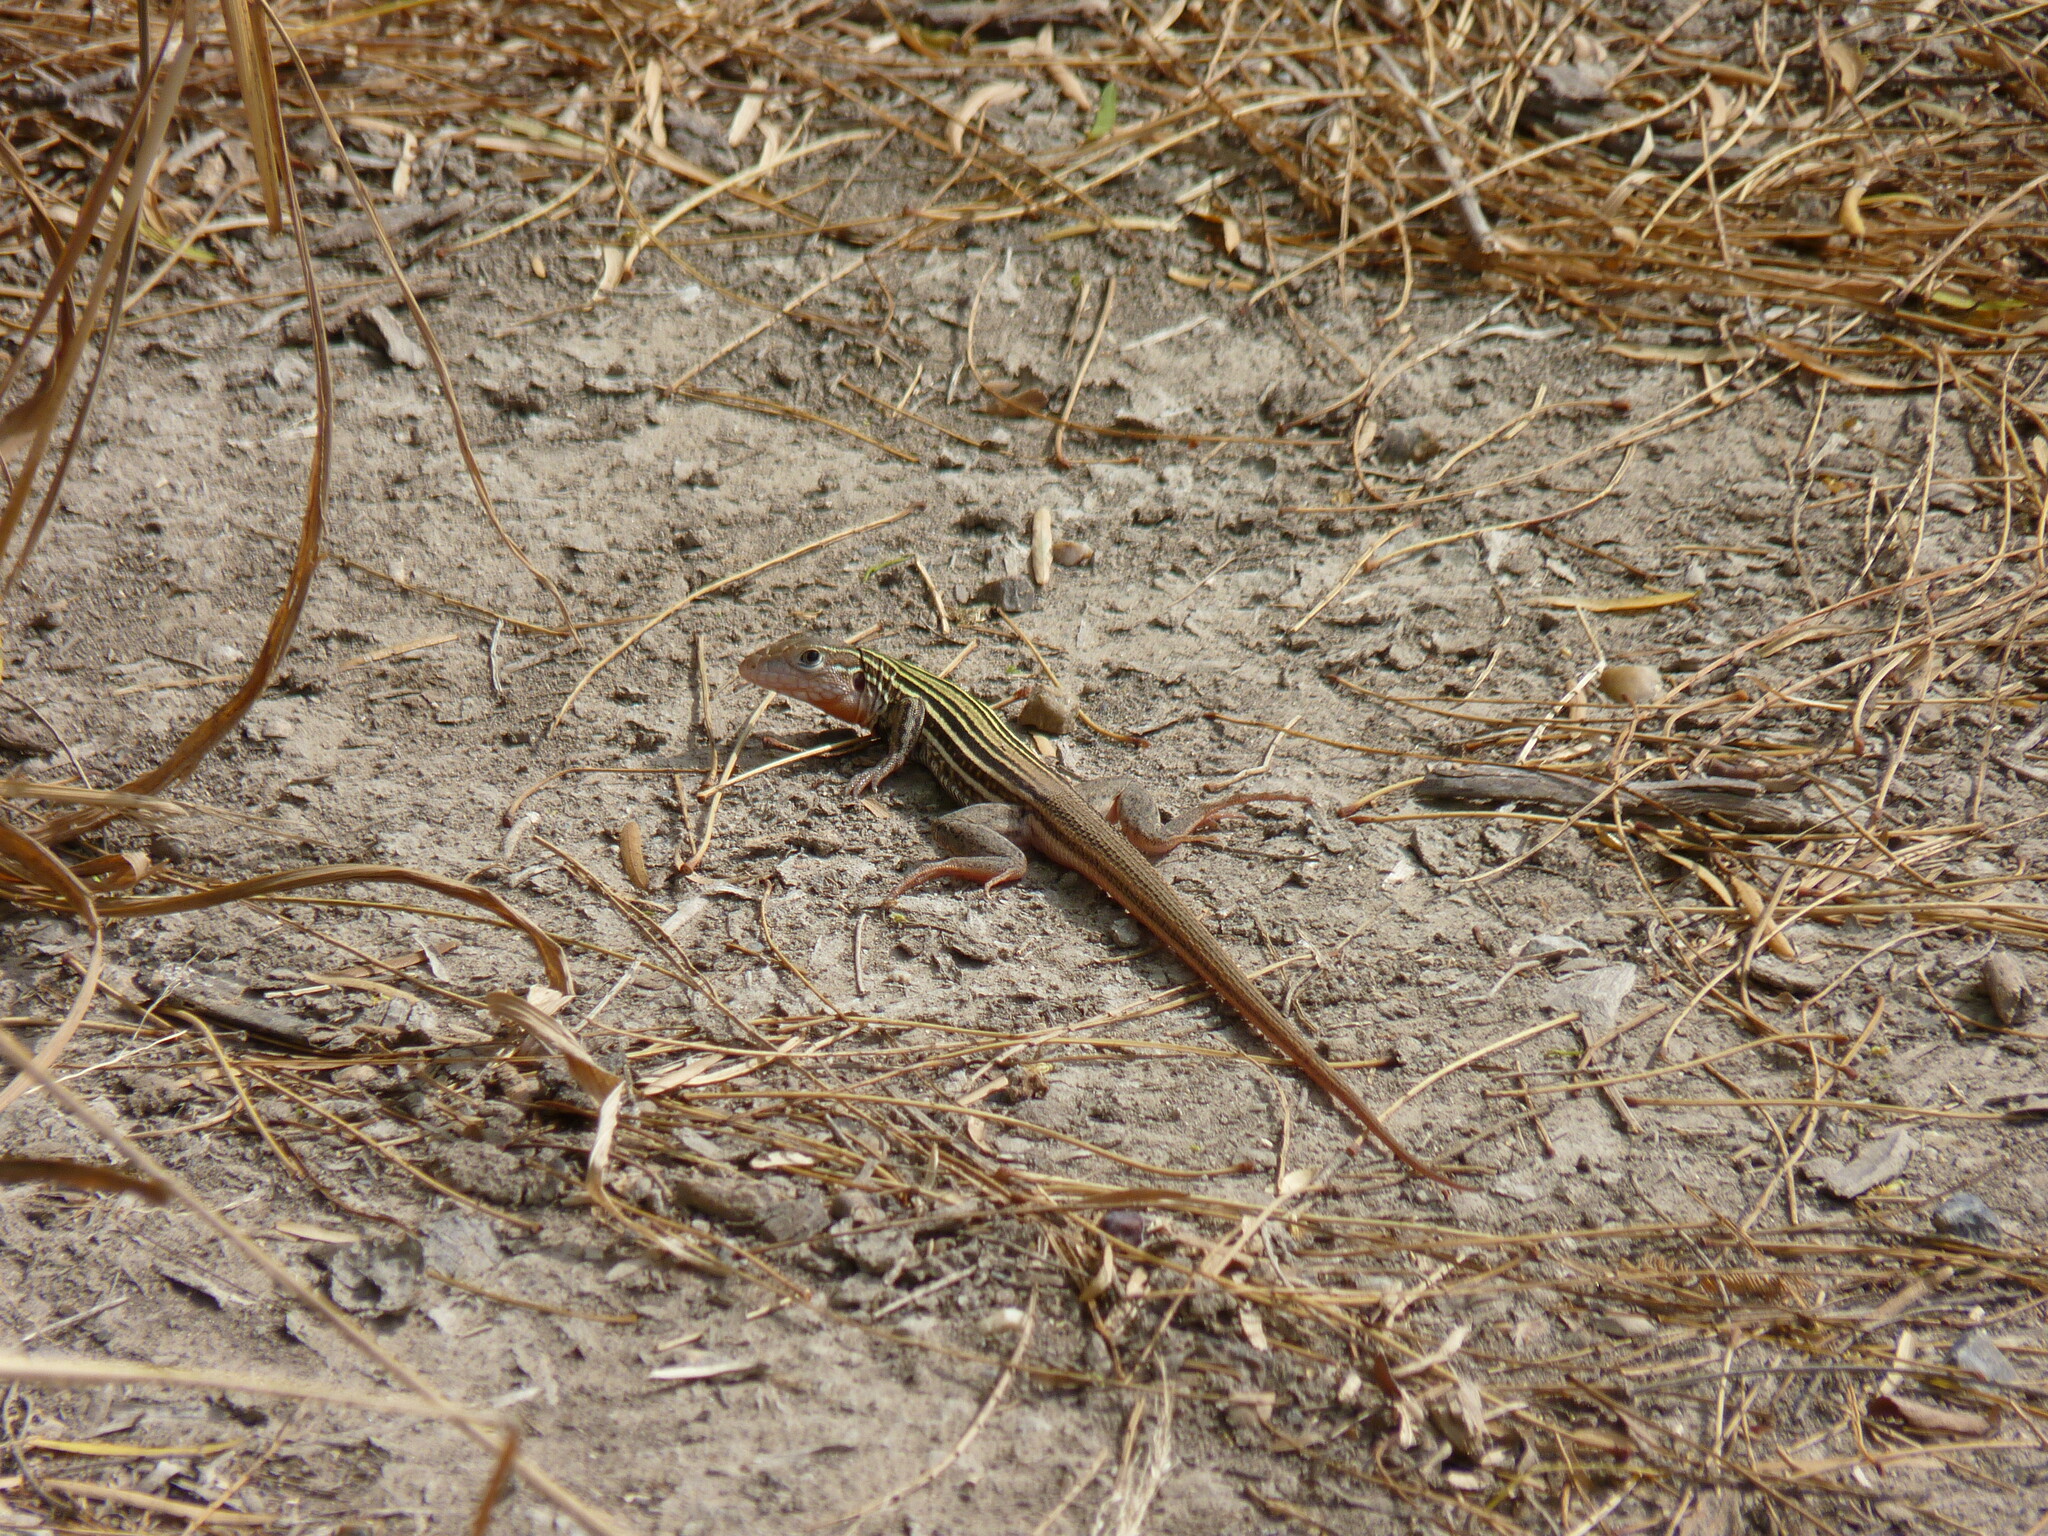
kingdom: Animalia
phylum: Chordata
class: Squamata
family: Teiidae
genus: Aspidoscelis
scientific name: Aspidoscelis gularis
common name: Eastern spotted whiptail
